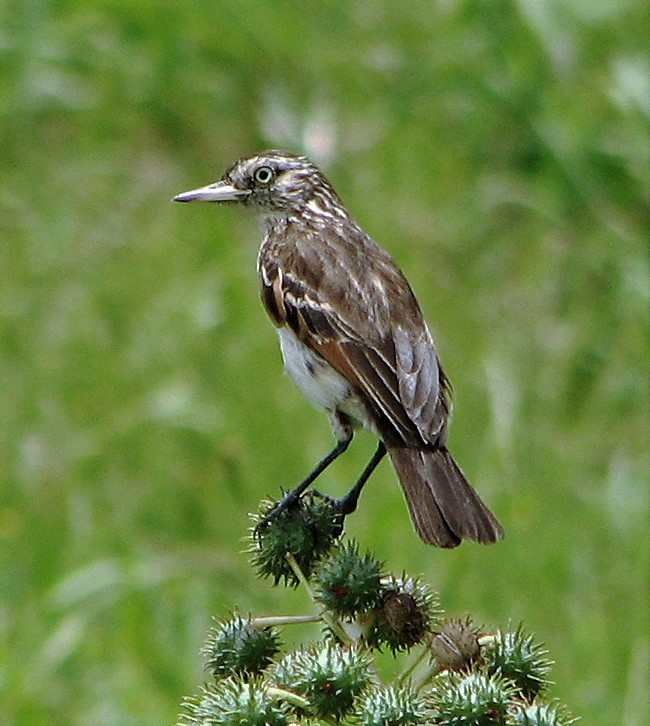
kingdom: Animalia
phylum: Chordata
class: Aves
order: Passeriformes
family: Tyrannidae
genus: Hymenops
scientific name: Hymenops perspicillatus
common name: Spectacled tyrant
